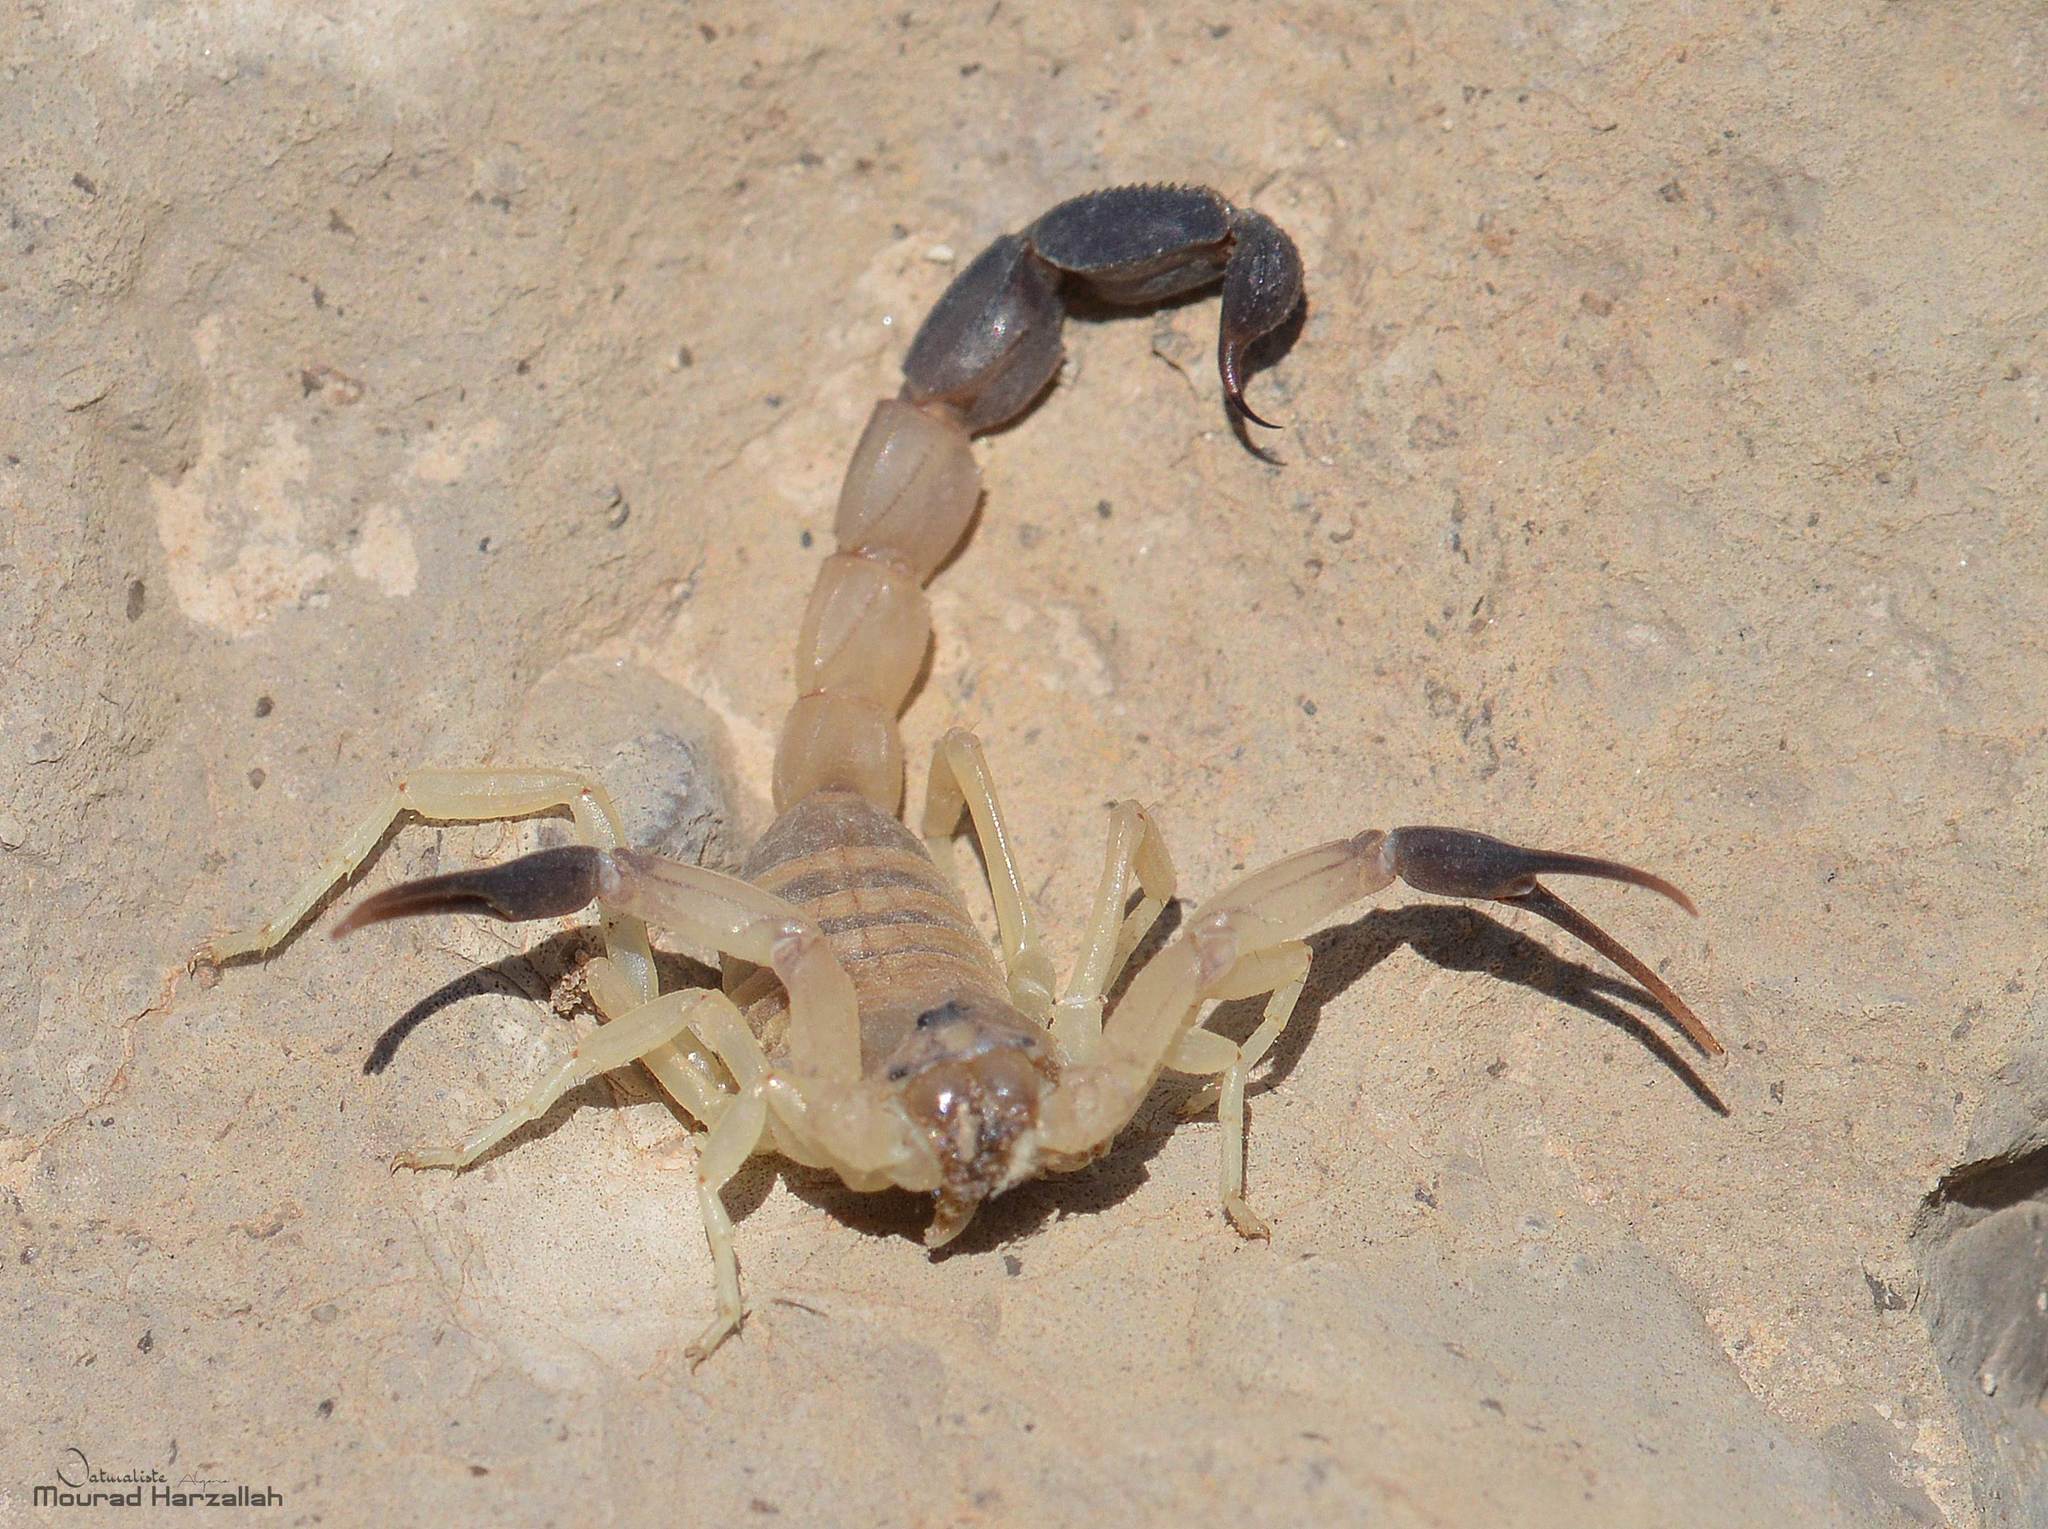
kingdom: Animalia
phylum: Arthropoda
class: Arachnida
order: Scorpiones
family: Buthidae
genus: Androctonus
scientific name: Androctonus australis
